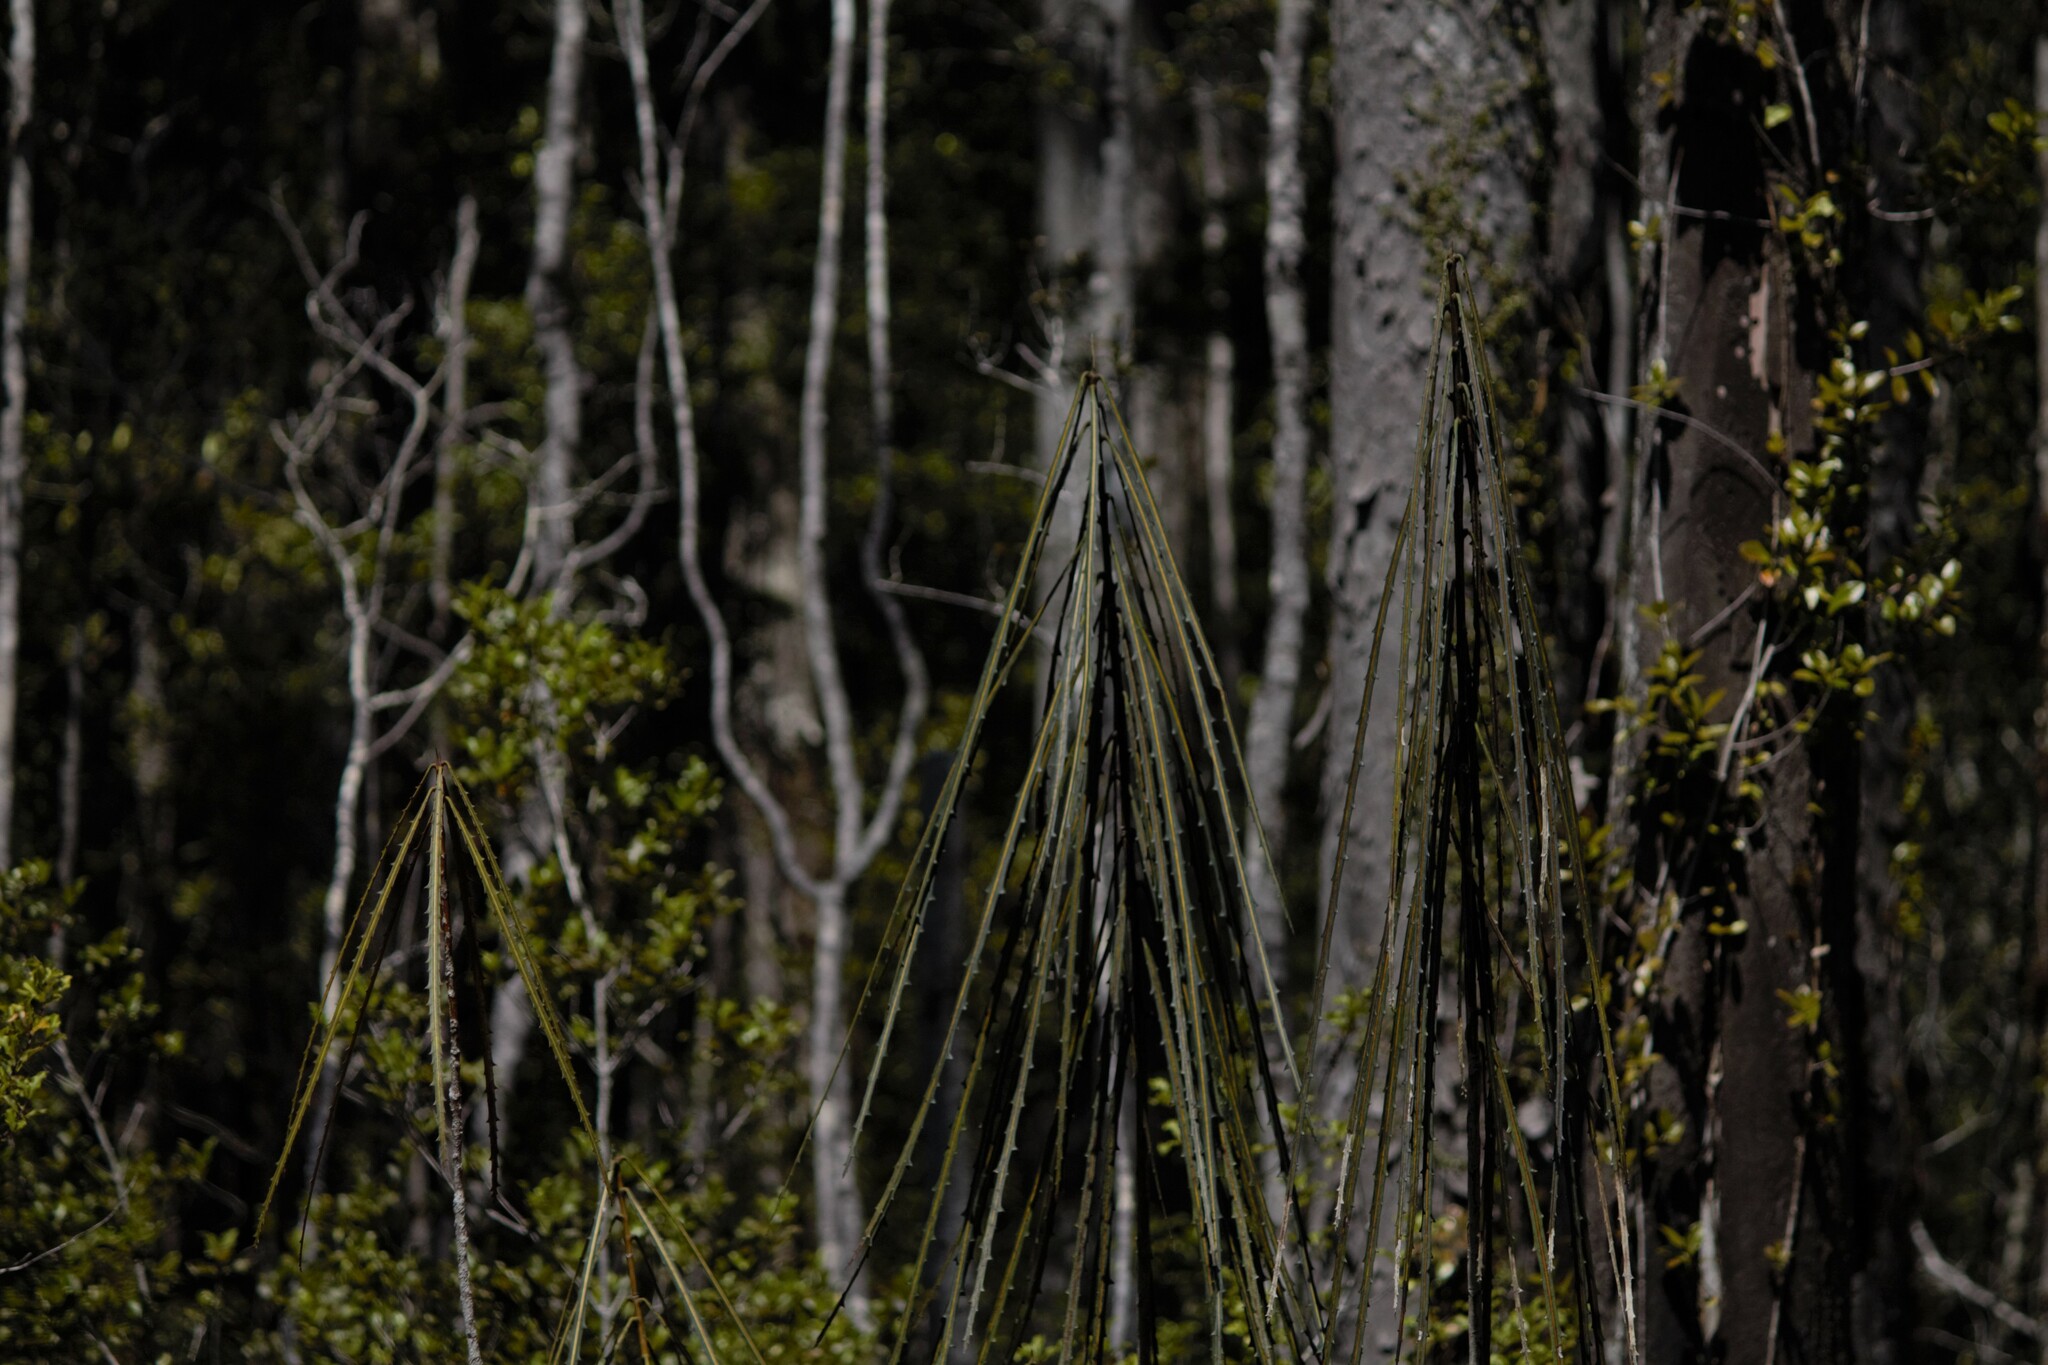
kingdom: Plantae
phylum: Tracheophyta
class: Magnoliopsida
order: Apiales
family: Araliaceae
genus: Pseudopanax
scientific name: Pseudopanax crassifolius
